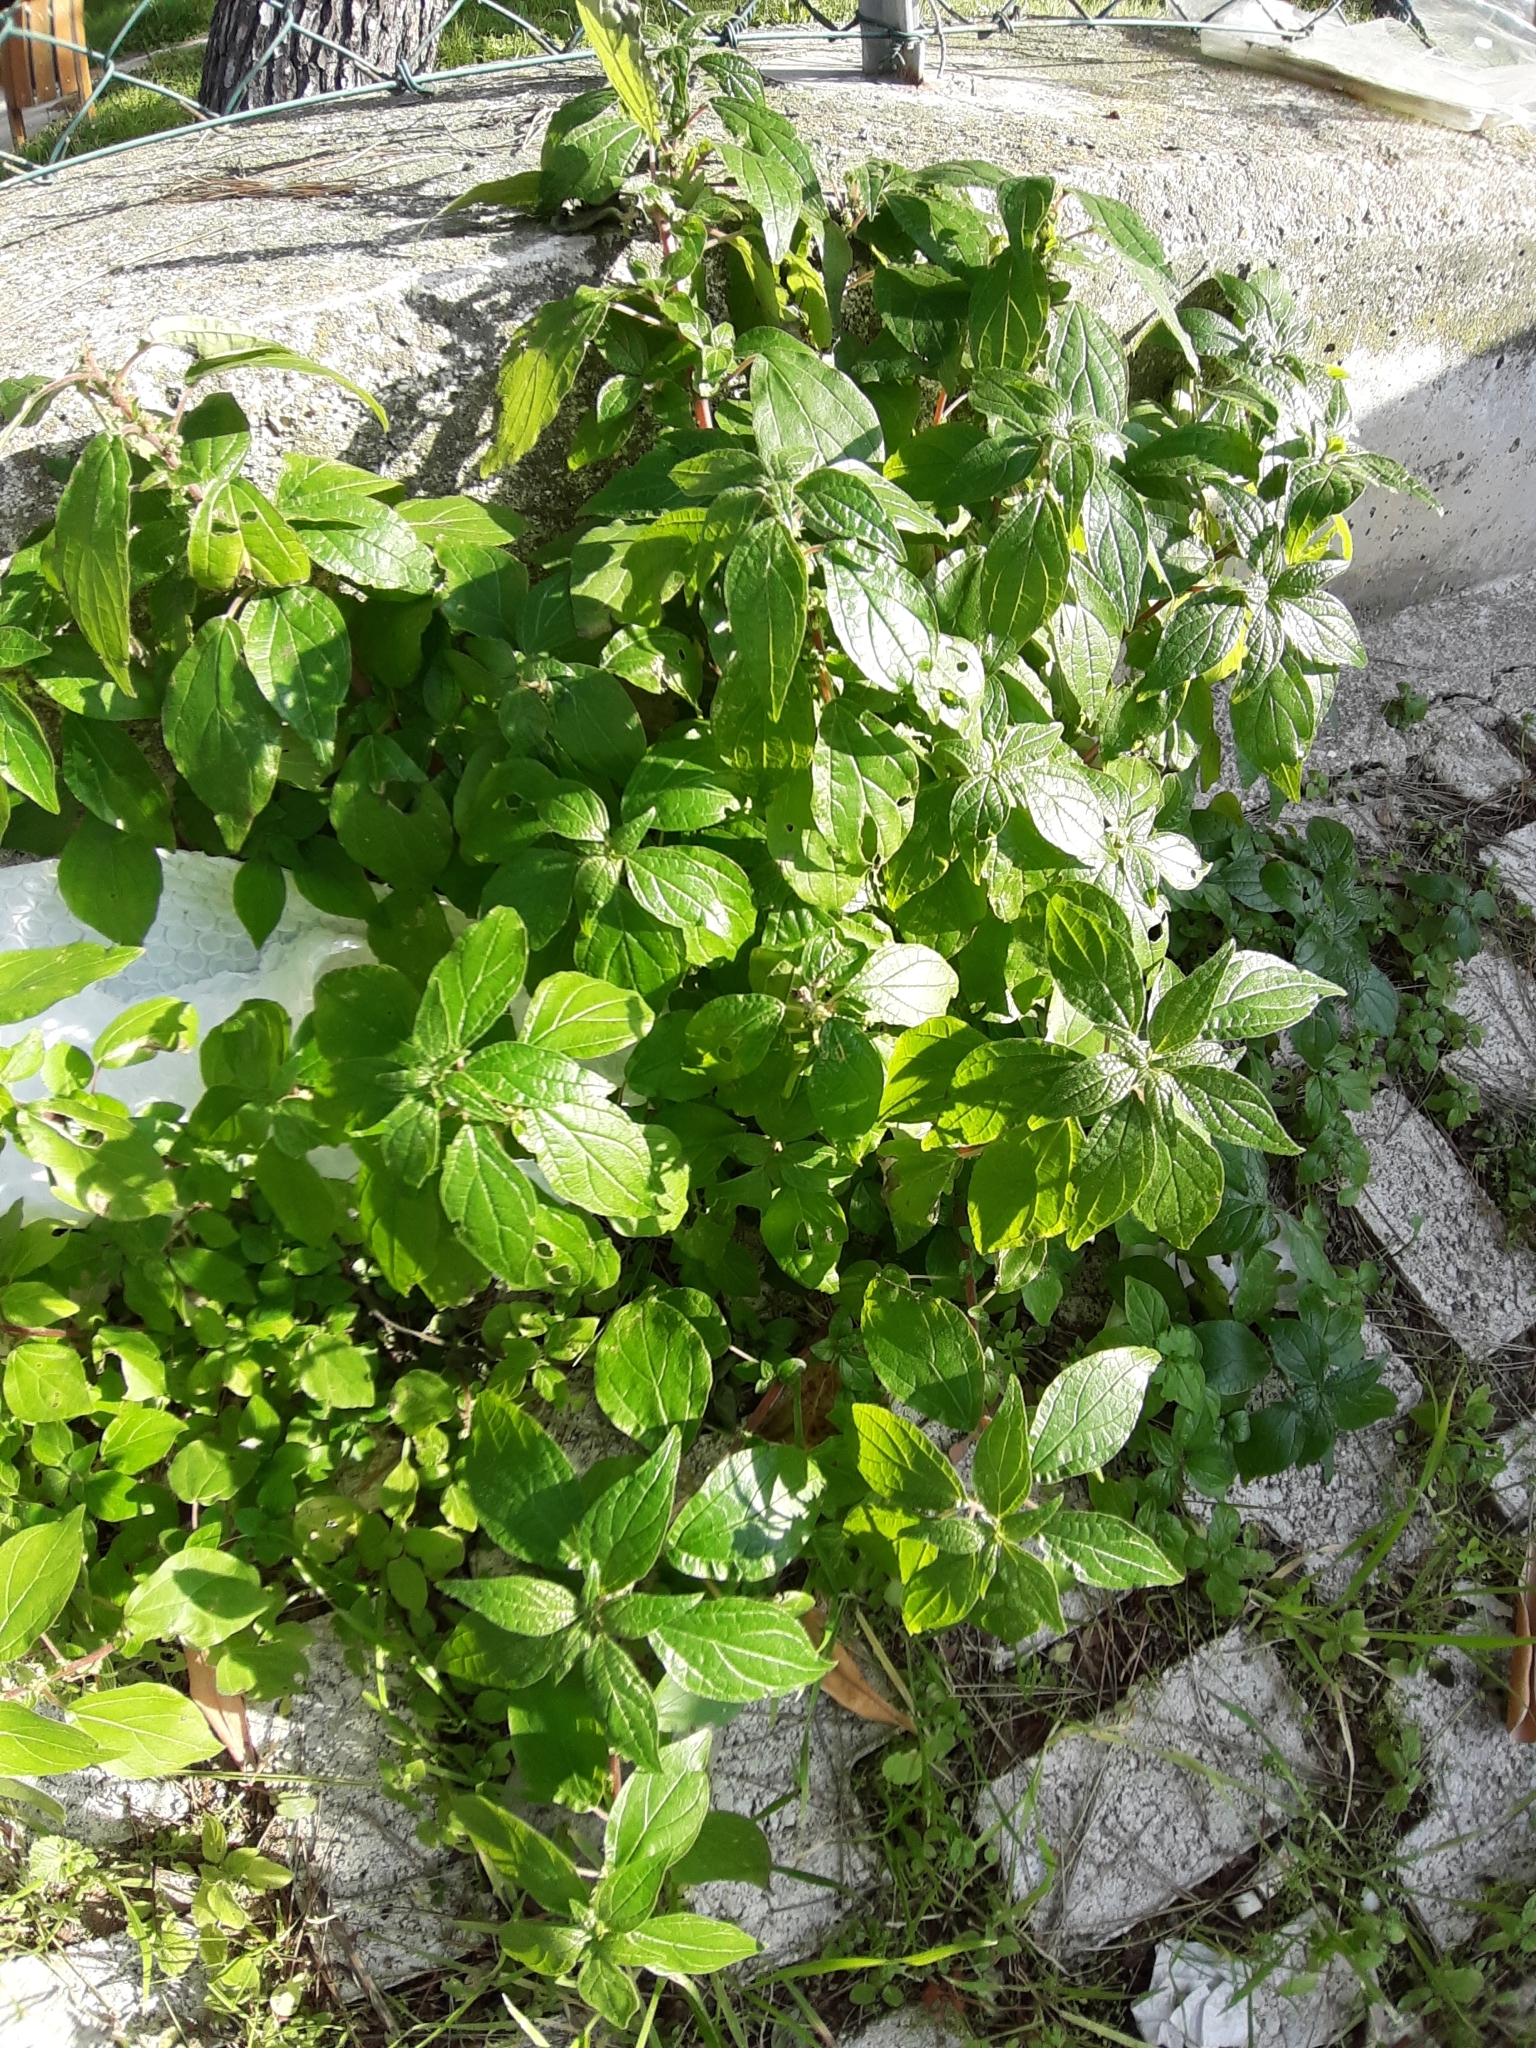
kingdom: Plantae
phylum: Tracheophyta
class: Magnoliopsida
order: Rosales
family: Urticaceae
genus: Parietaria
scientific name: Parietaria judaica
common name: Pellitory-of-the-wall
